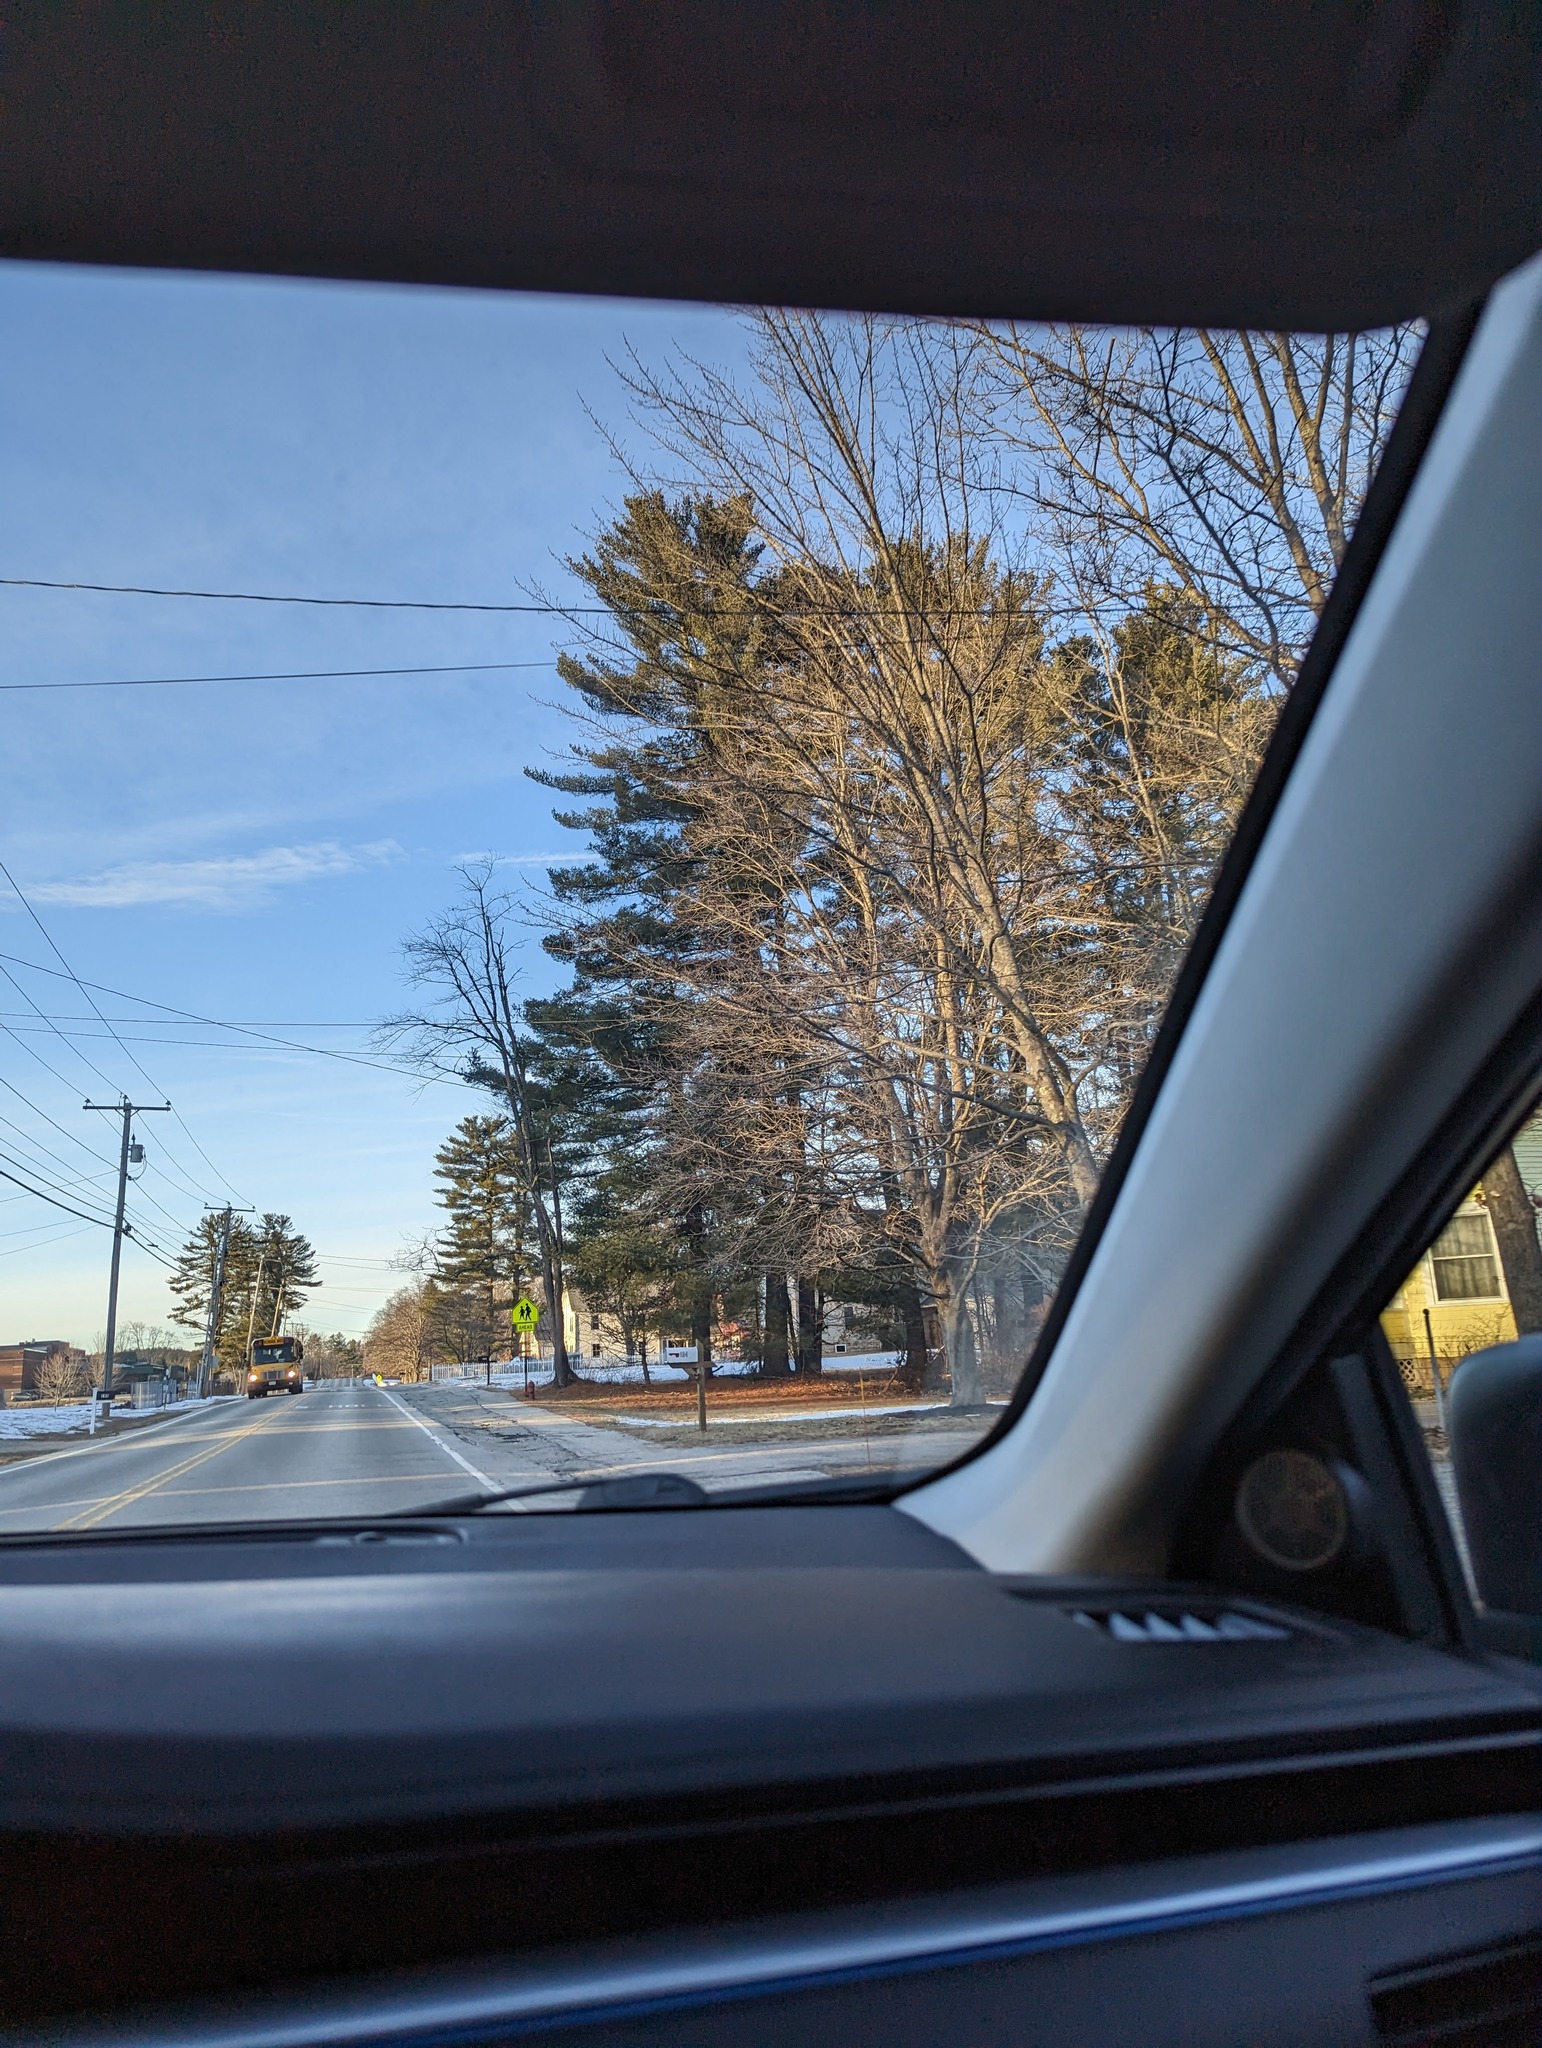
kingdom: Plantae
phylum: Tracheophyta
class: Pinopsida
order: Pinales
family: Pinaceae
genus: Pinus
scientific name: Pinus strobus
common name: Weymouth pine
